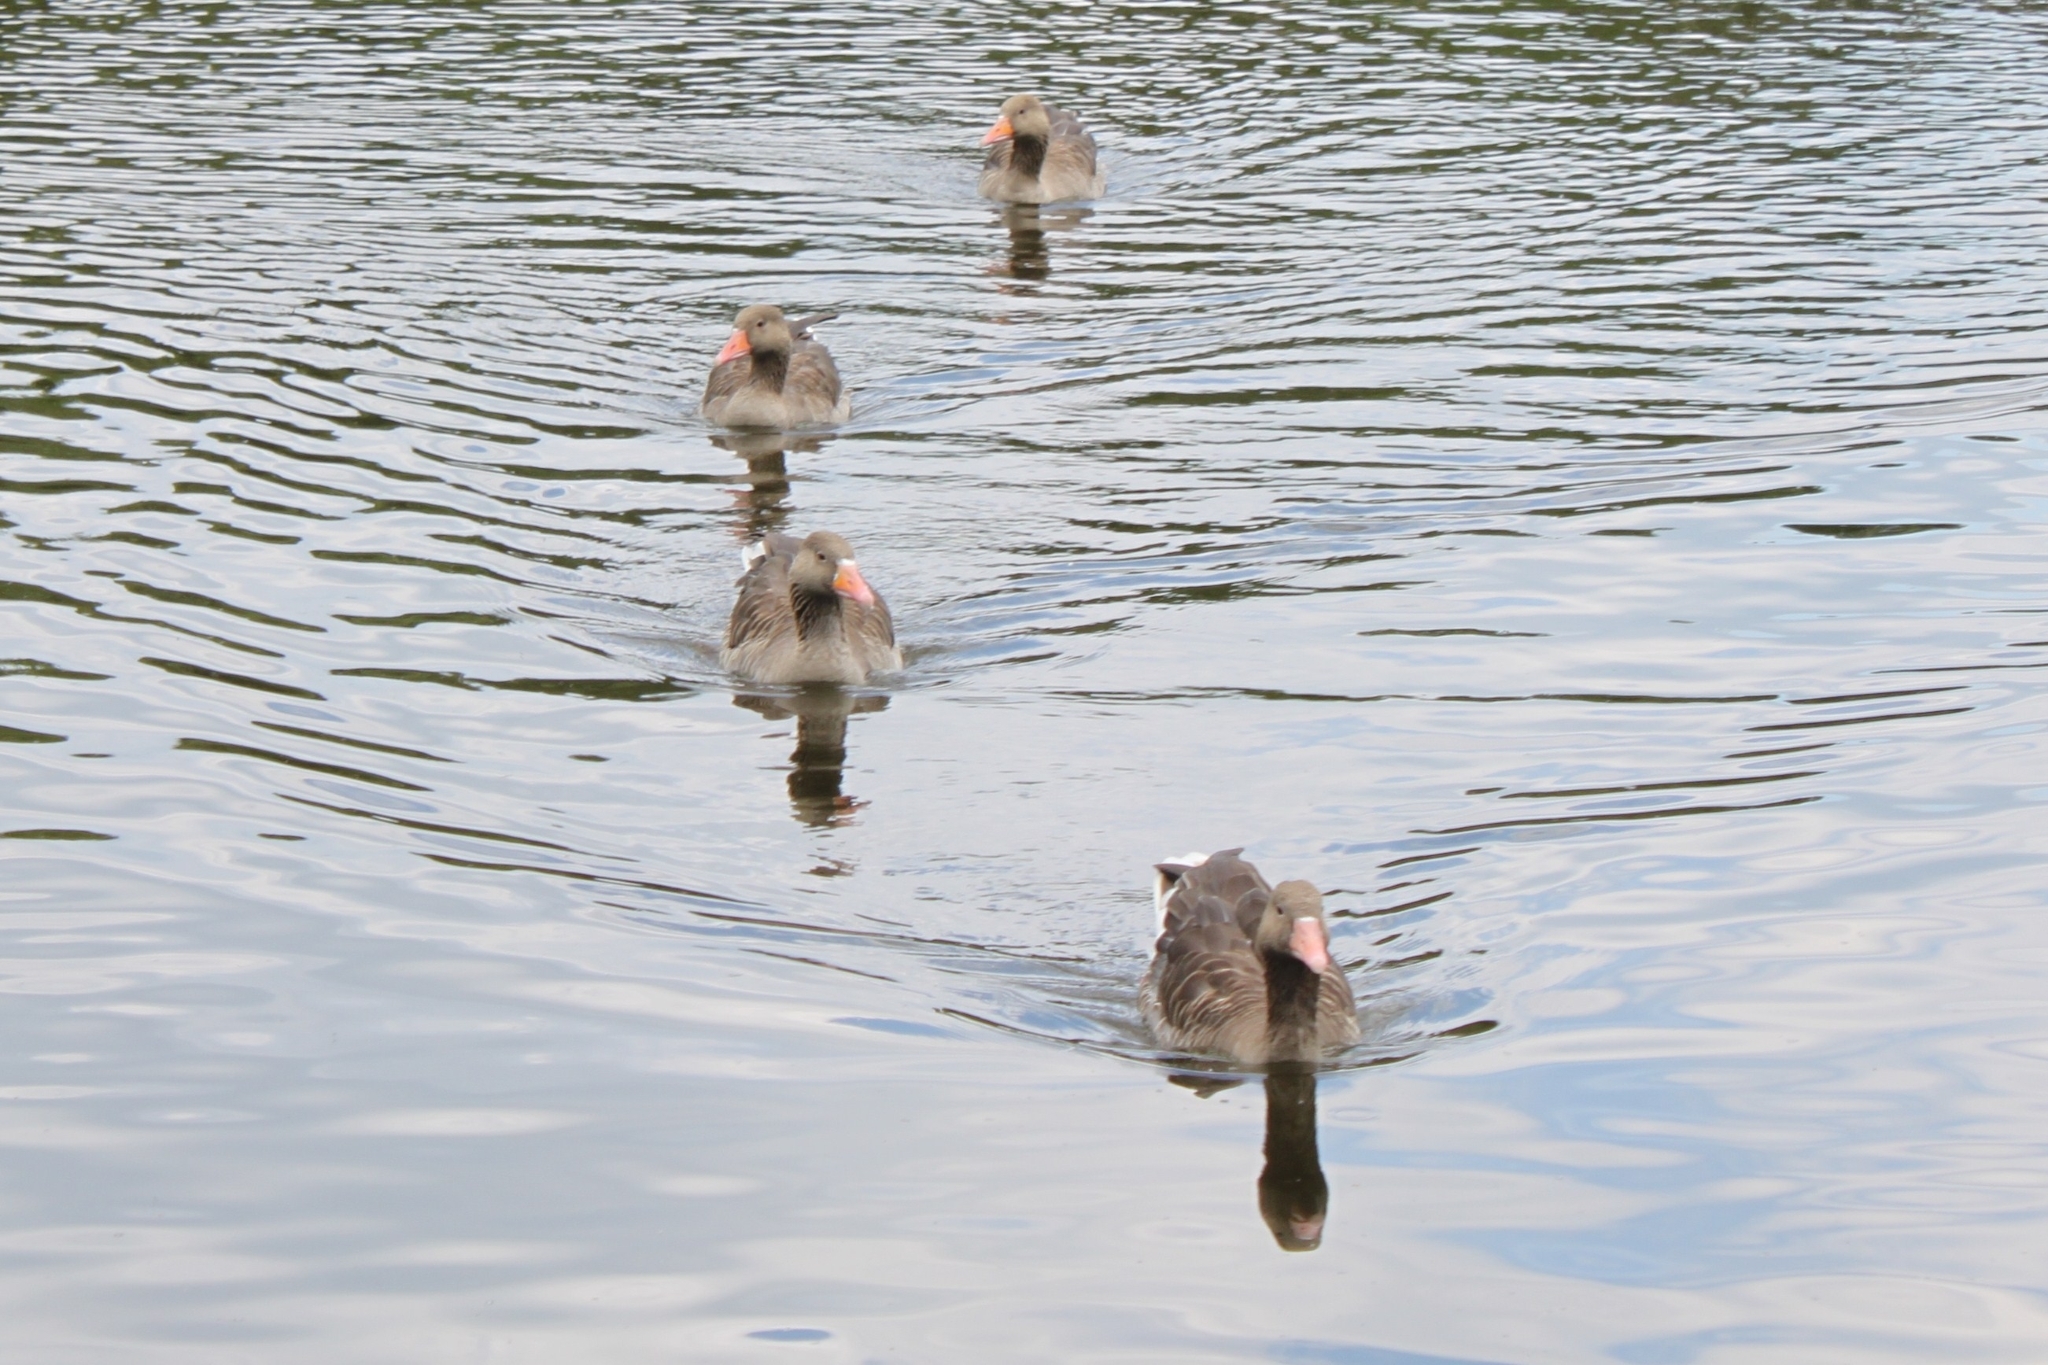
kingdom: Animalia
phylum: Chordata
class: Aves
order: Anseriformes
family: Anatidae
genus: Anser
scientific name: Anser anser
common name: Greylag goose
